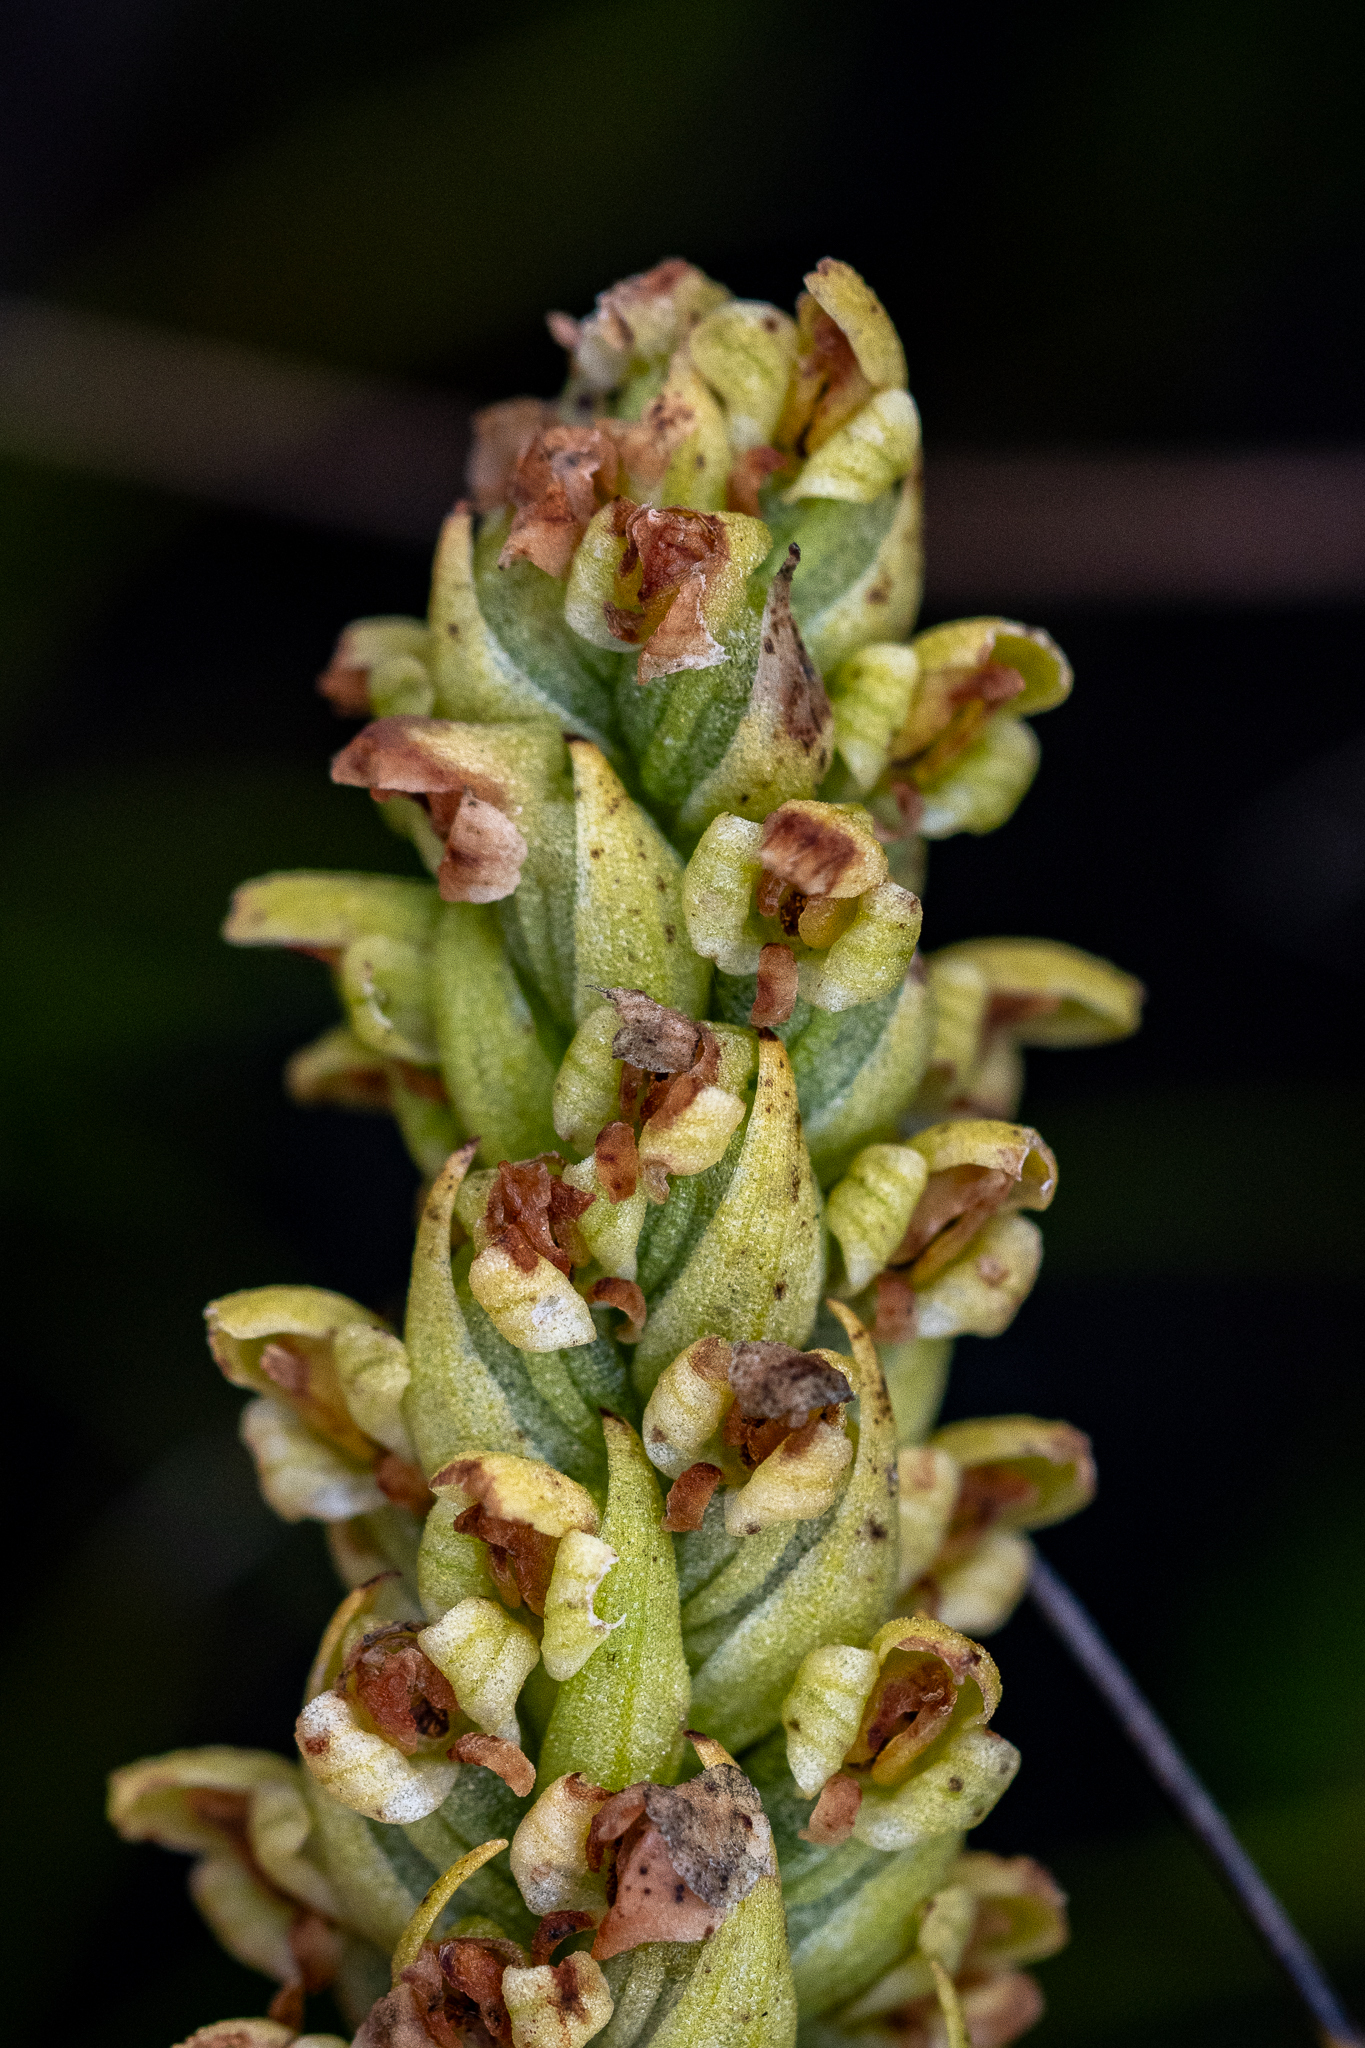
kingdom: Plantae
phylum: Tracheophyta
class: Liliopsida
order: Asparagales
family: Orchidaceae
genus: Disa
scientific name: Disa cylindrica
